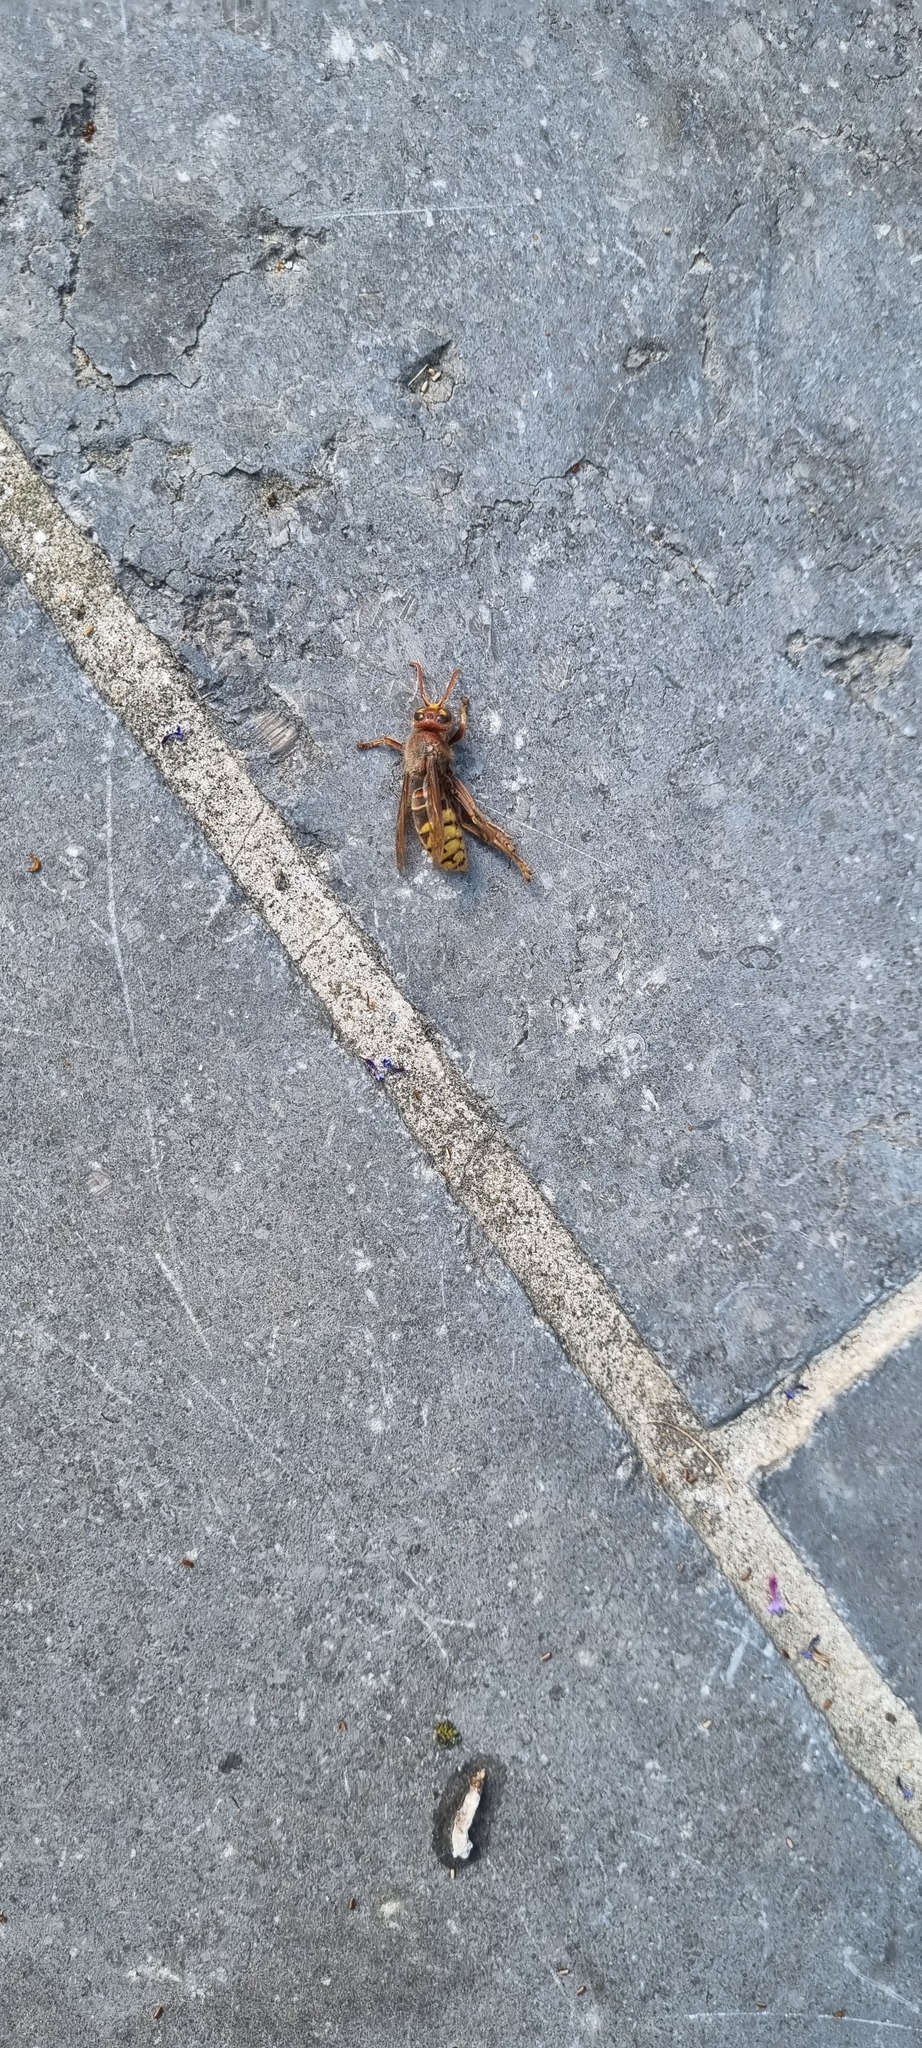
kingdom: Animalia
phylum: Arthropoda
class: Insecta
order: Hymenoptera
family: Vespidae
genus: Vespa
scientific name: Vespa crabro
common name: Hornet
